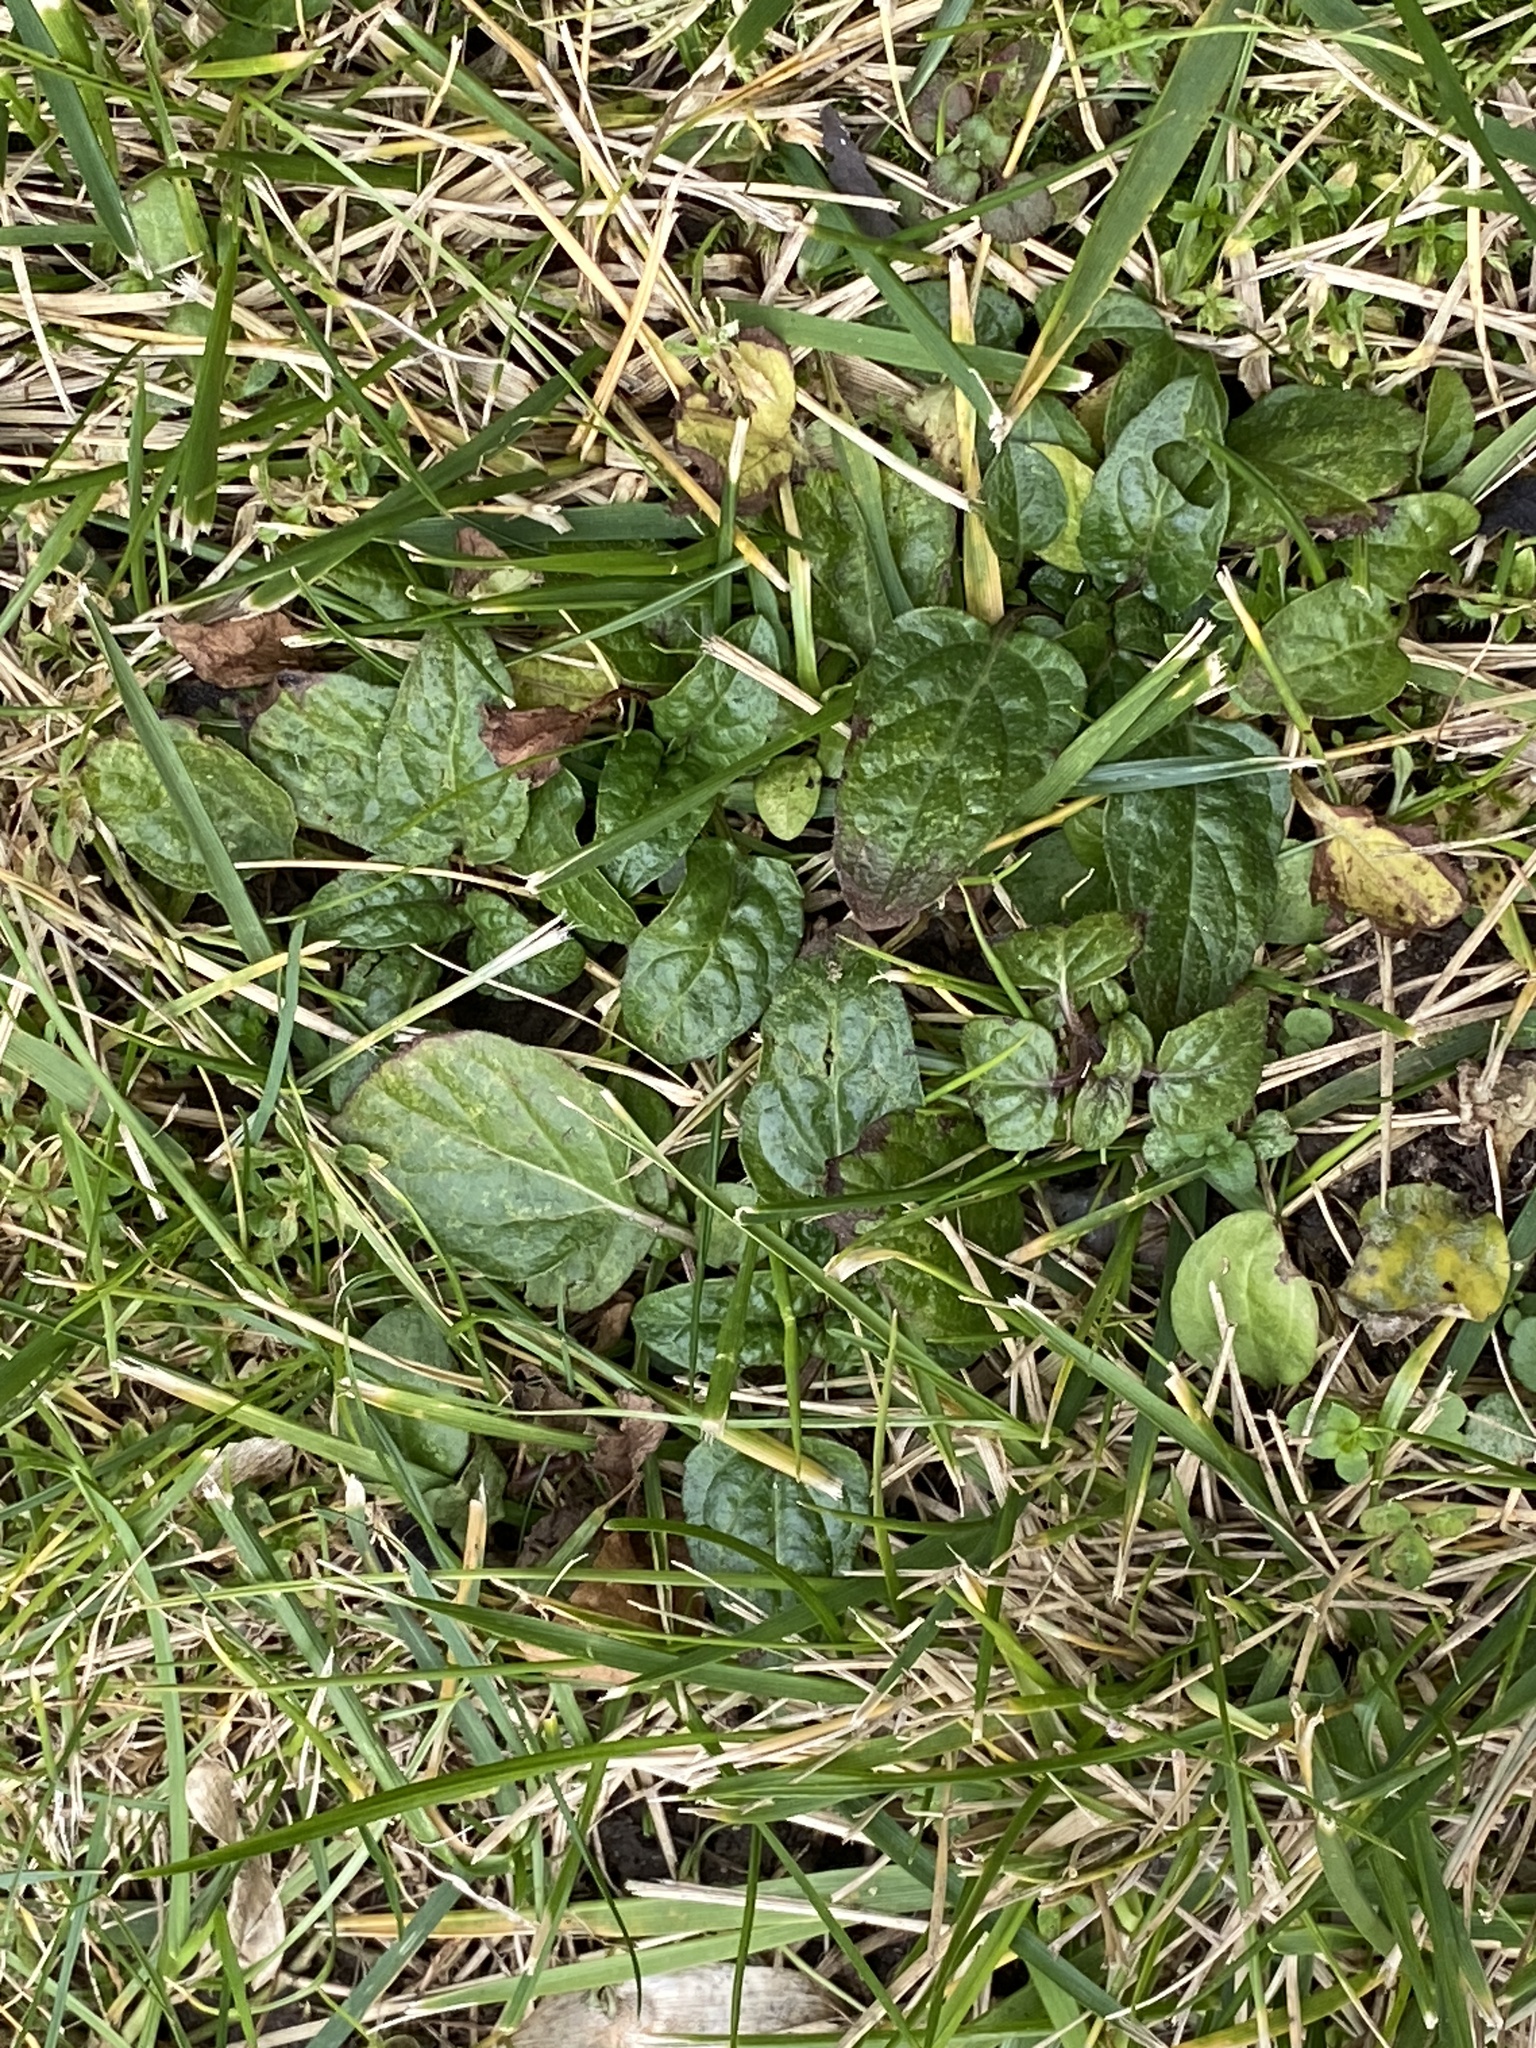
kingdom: Plantae
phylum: Tracheophyta
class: Magnoliopsida
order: Lamiales
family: Lamiaceae
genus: Prunella
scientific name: Prunella vulgaris
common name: Heal-all
